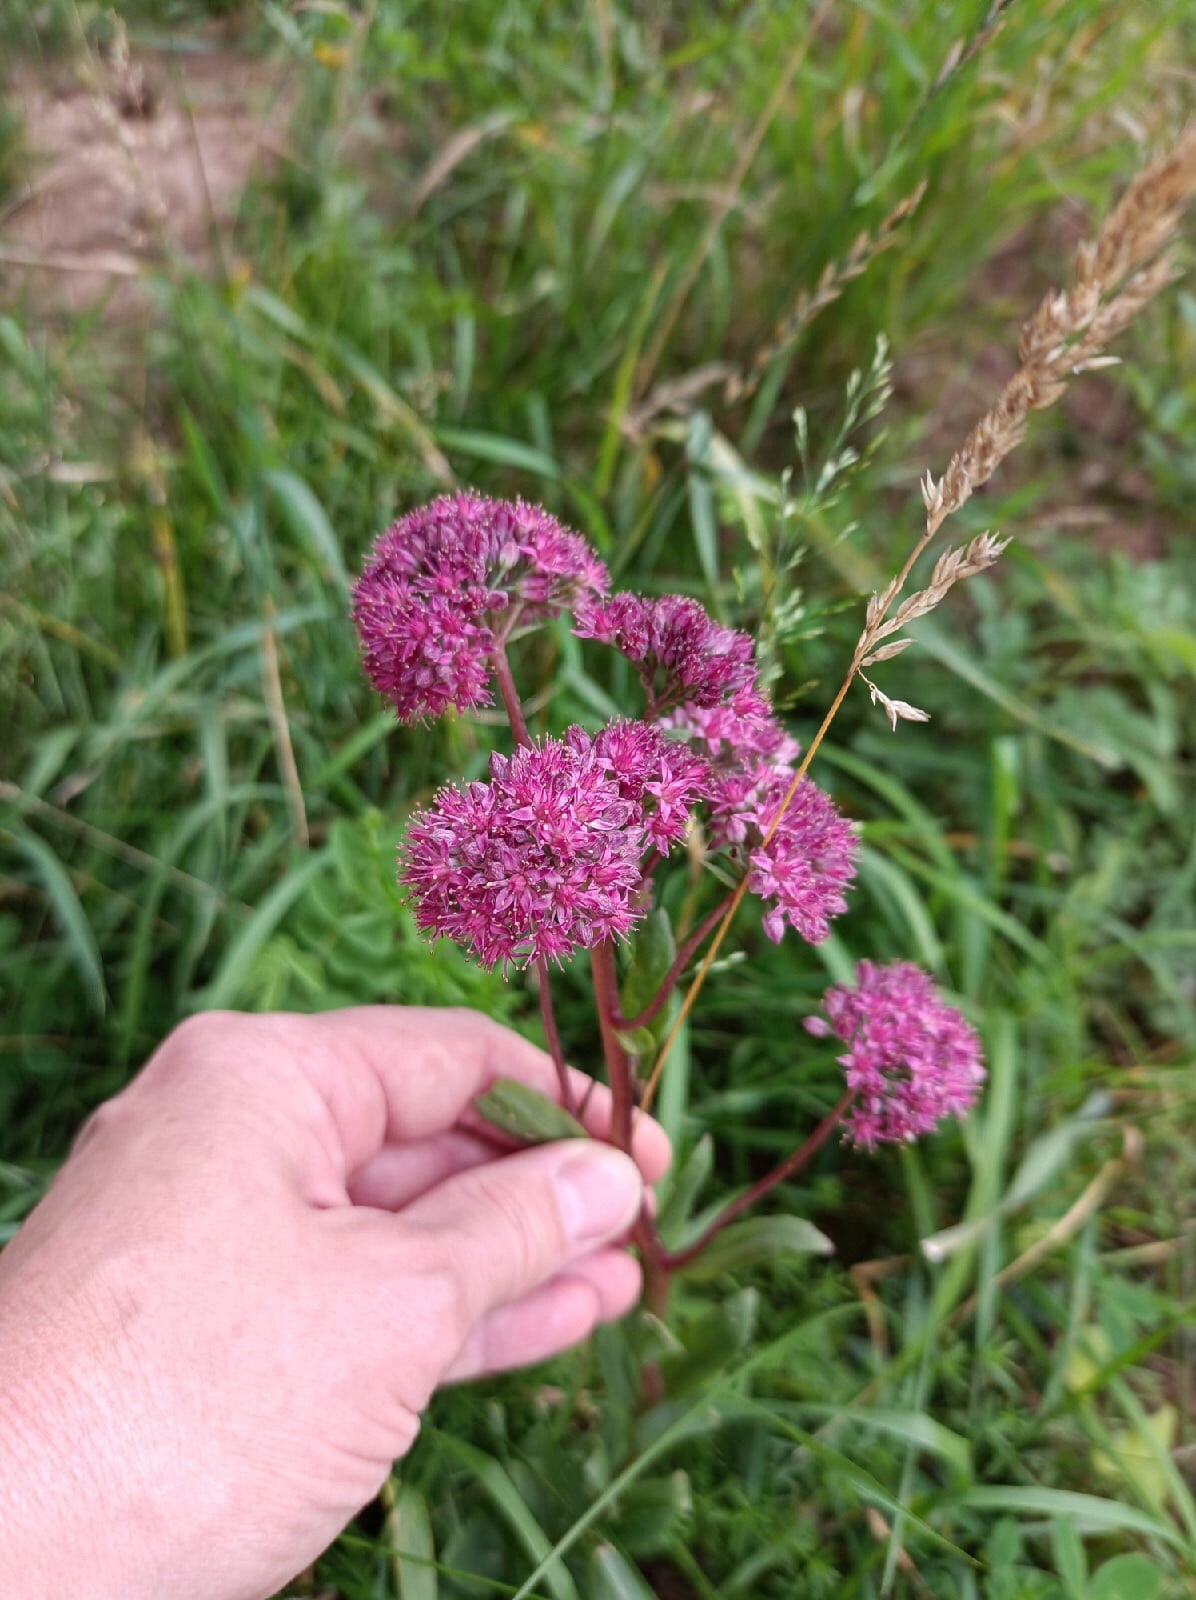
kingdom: Plantae
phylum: Tracheophyta
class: Magnoliopsida
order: Saxifragales
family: Crassulaceae
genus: Hylotelephium
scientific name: Hylotelephium telephium
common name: Live-forever
